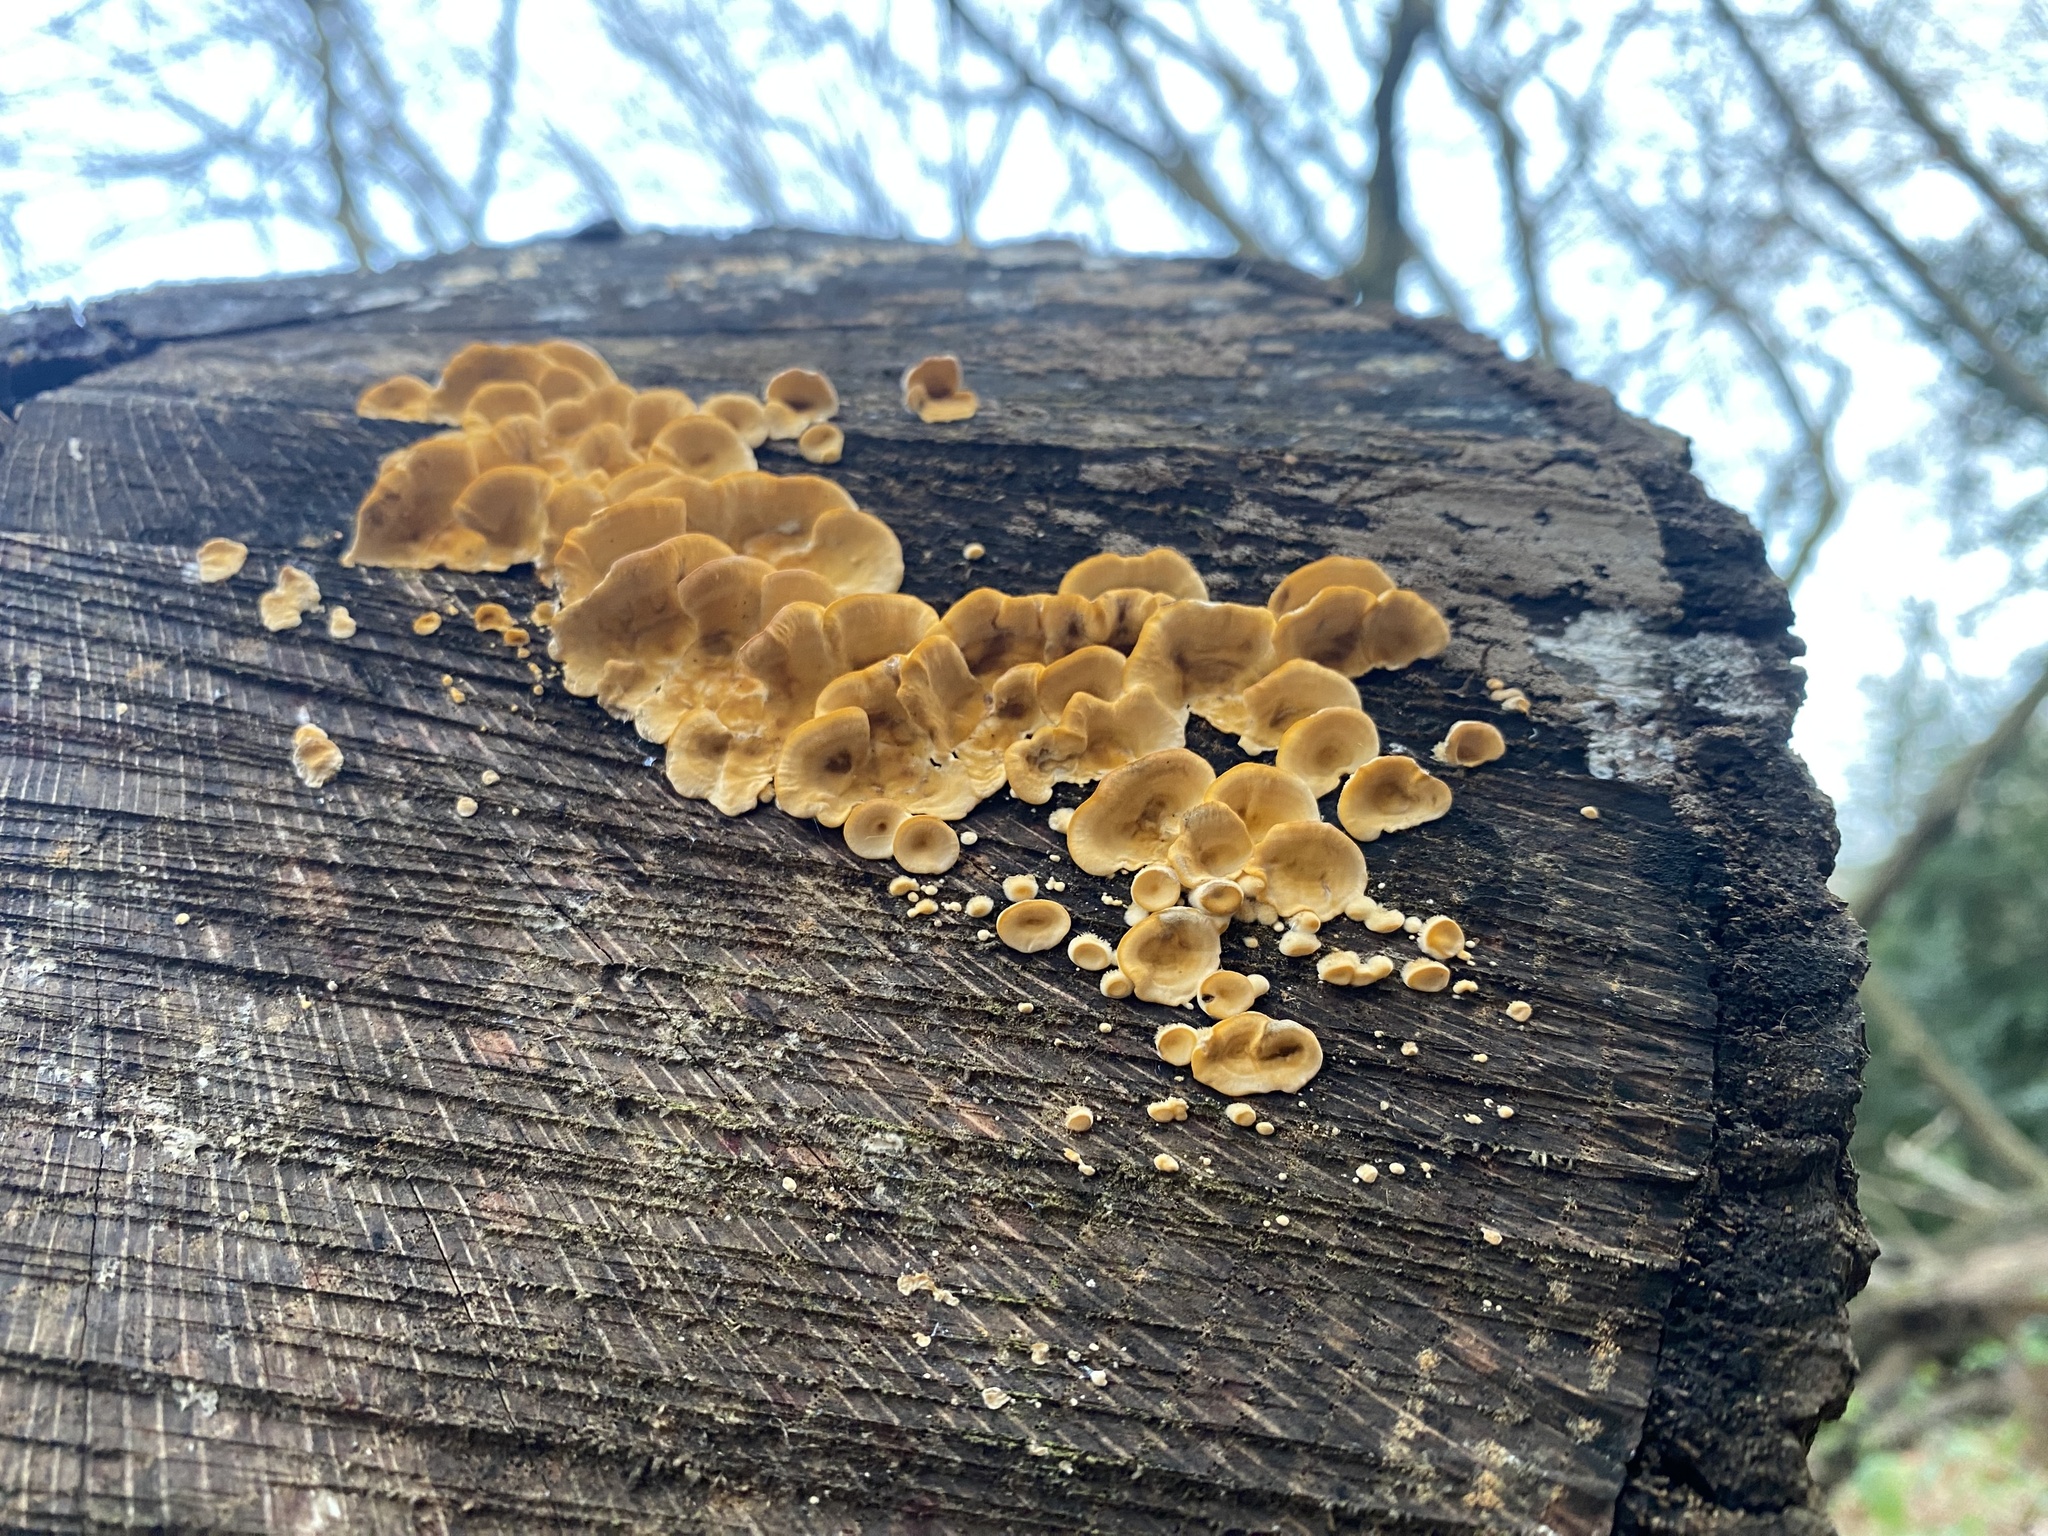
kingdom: Fungi
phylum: Basidiomycota
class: Agaricomycetes
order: Russulales
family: Stereaceae
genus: Stereum
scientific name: Stereum hirsutum
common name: Hairy curtain crust
